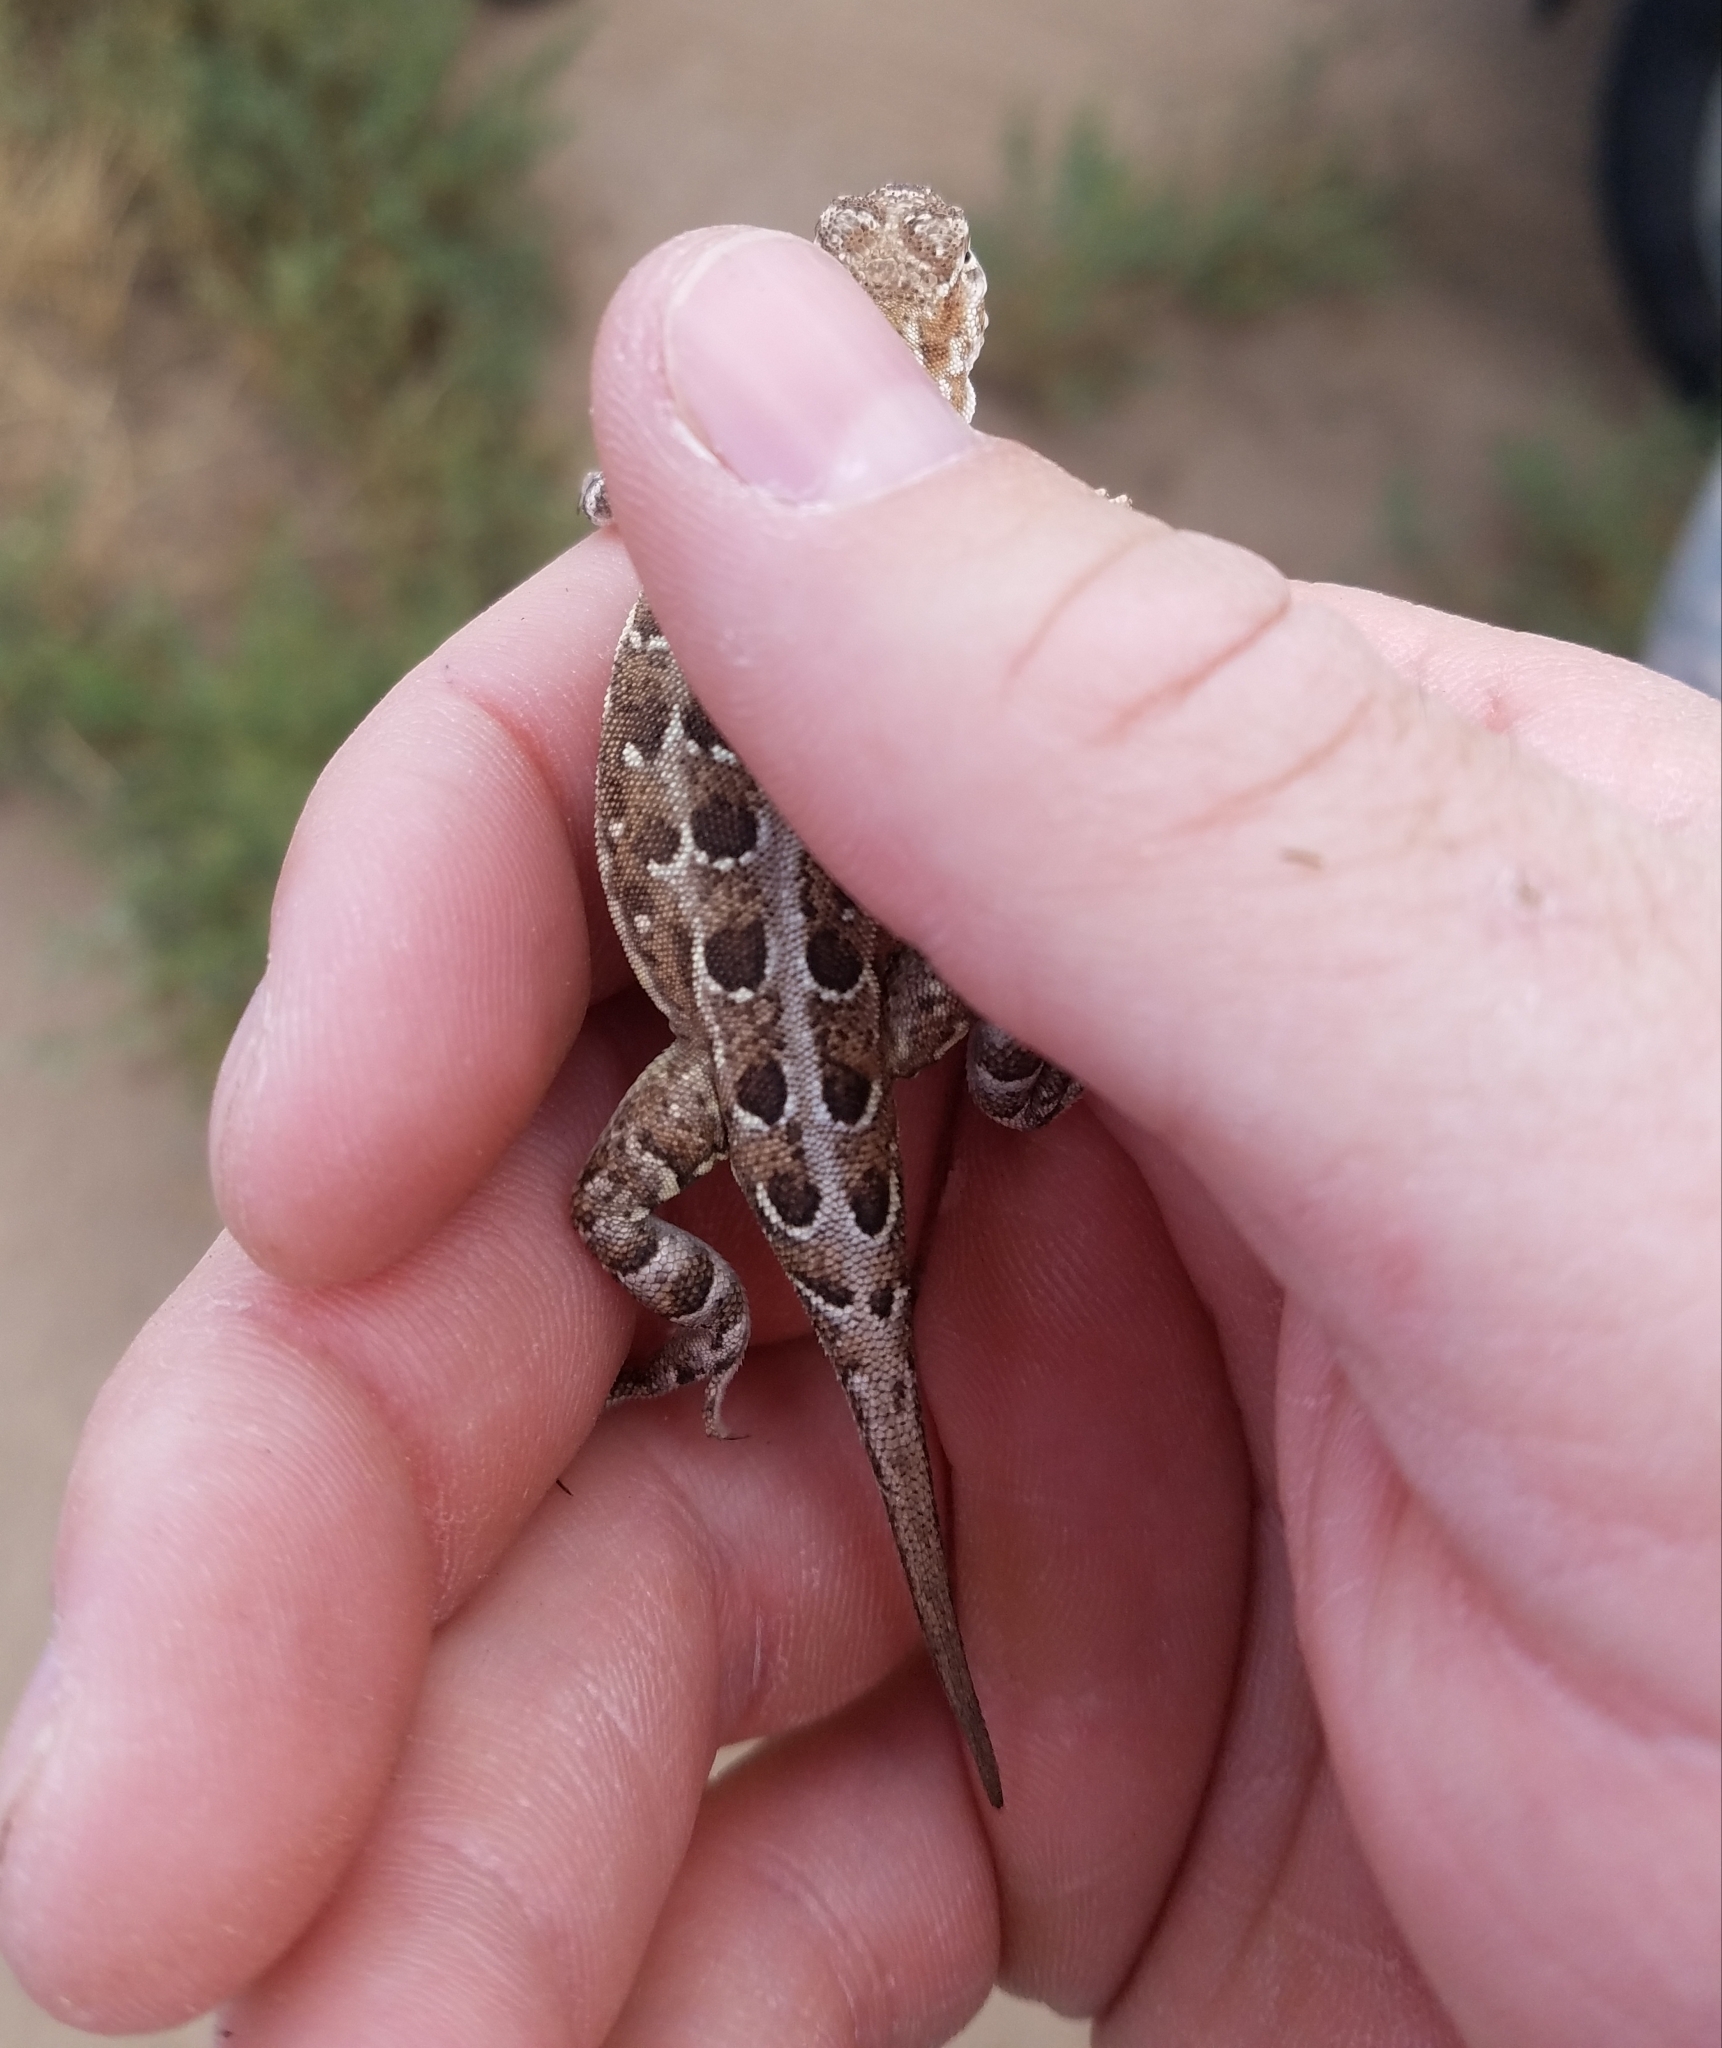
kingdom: Animalia
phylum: Chordata
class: Squamata
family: Phrynosomatidae
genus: Holbrookia
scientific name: Holbrookia maculata
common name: Lesser earless lizard
